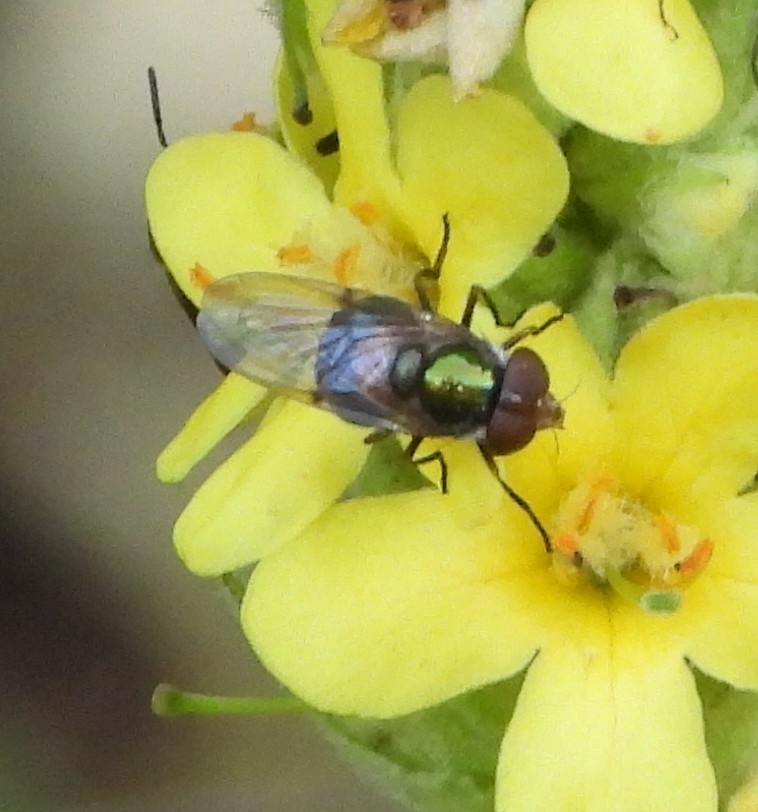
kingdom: Animalia
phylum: Arthropoda
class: Insecta
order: Diptera
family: Syrphidae
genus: Copestylum
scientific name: Copestylum vesicularium
